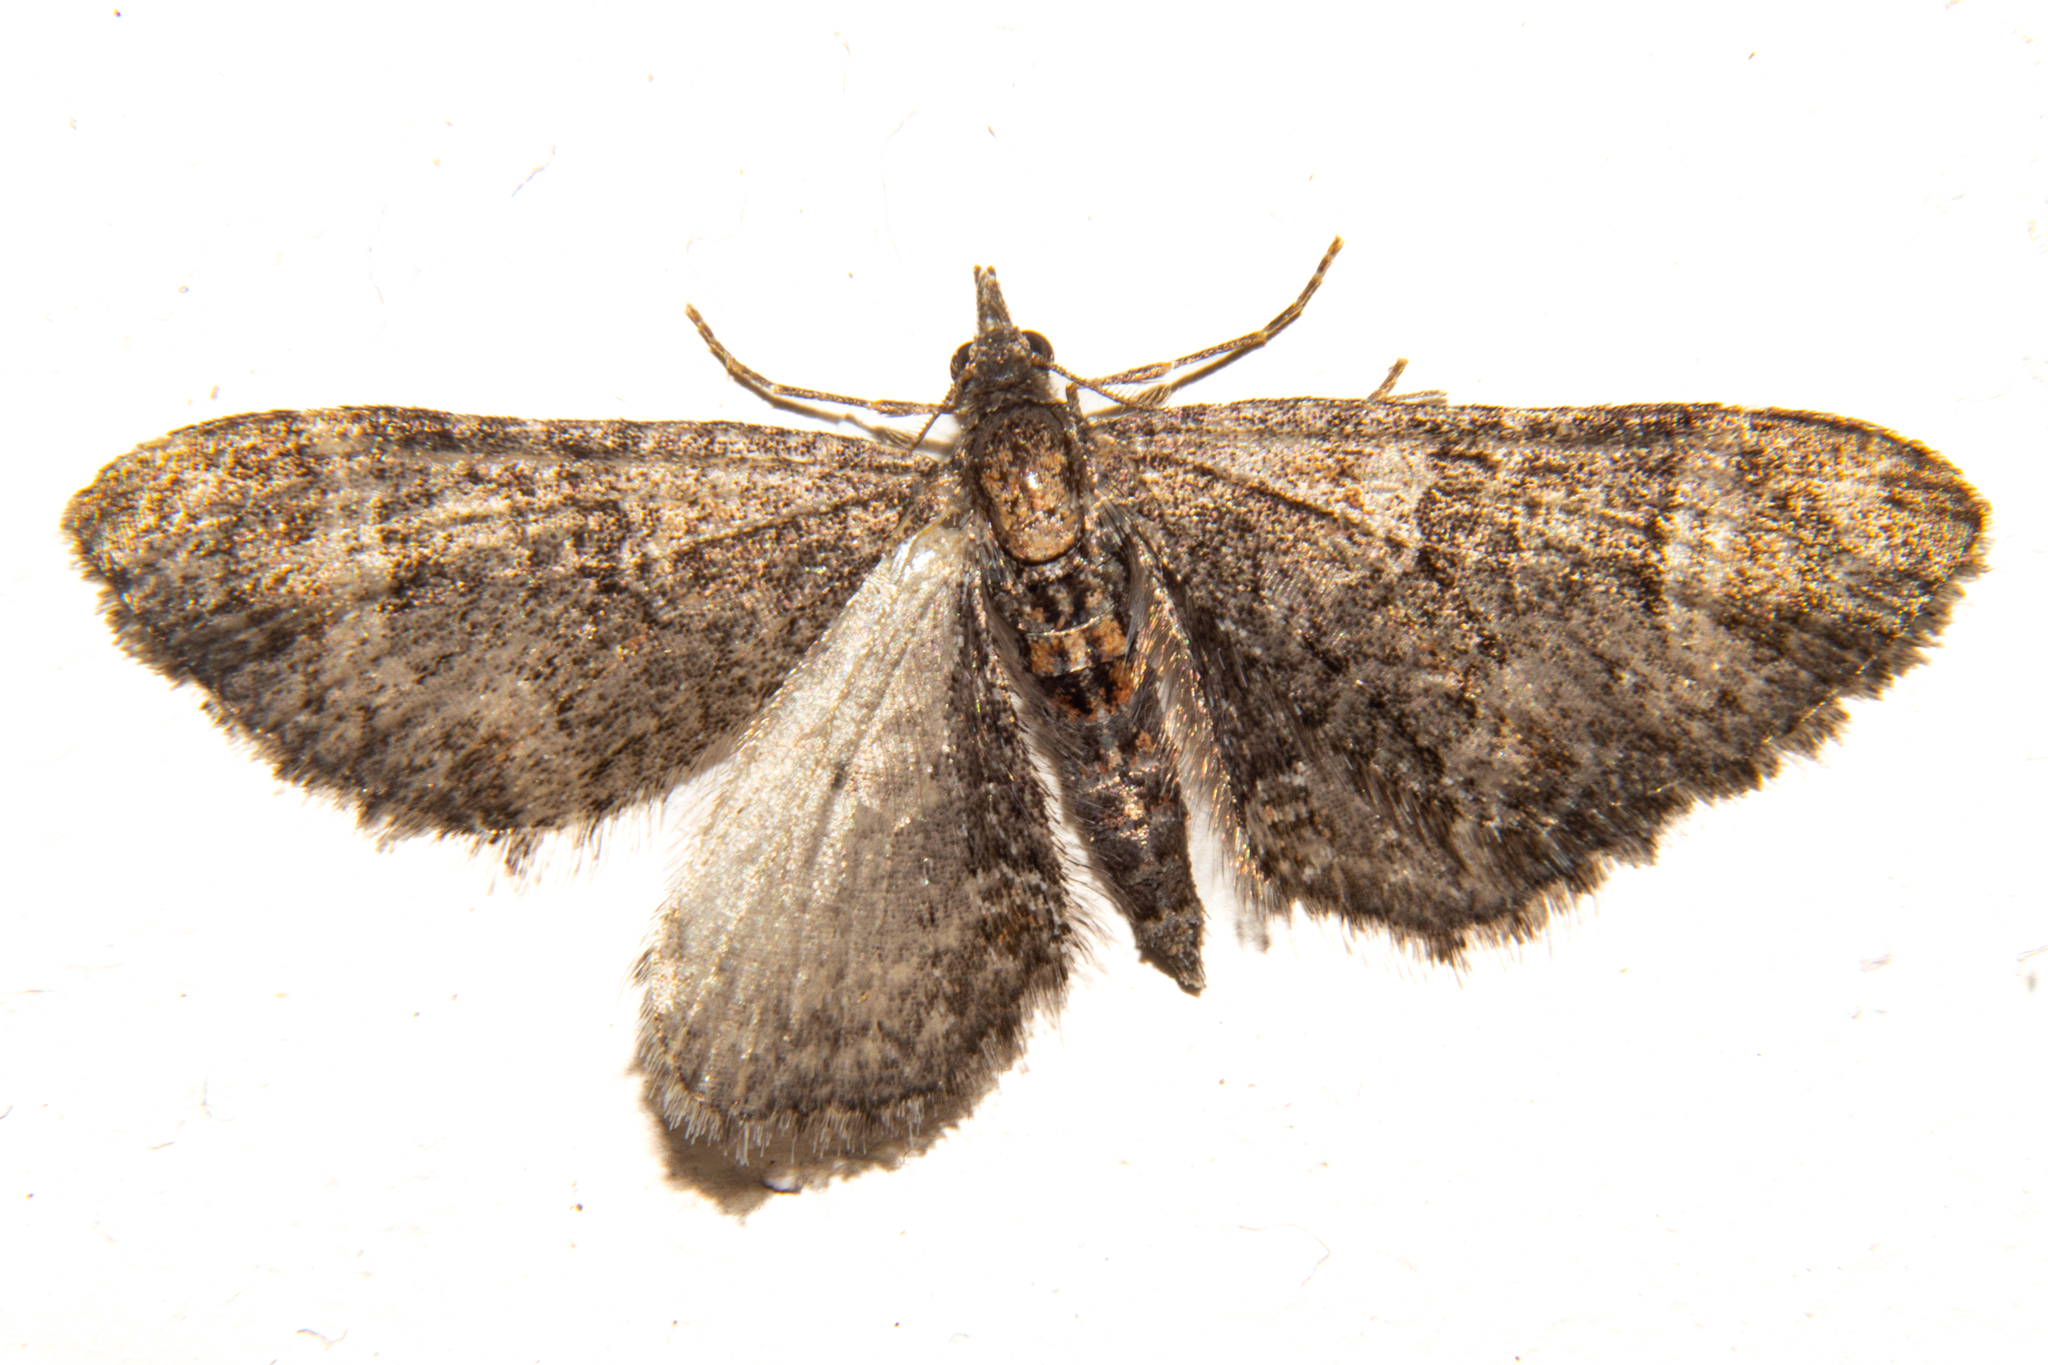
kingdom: Animalia
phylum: Arthropoda
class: Insecta
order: Lepidoptera
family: Geometridae
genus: Pasiphila
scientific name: Pasiphila erratica
